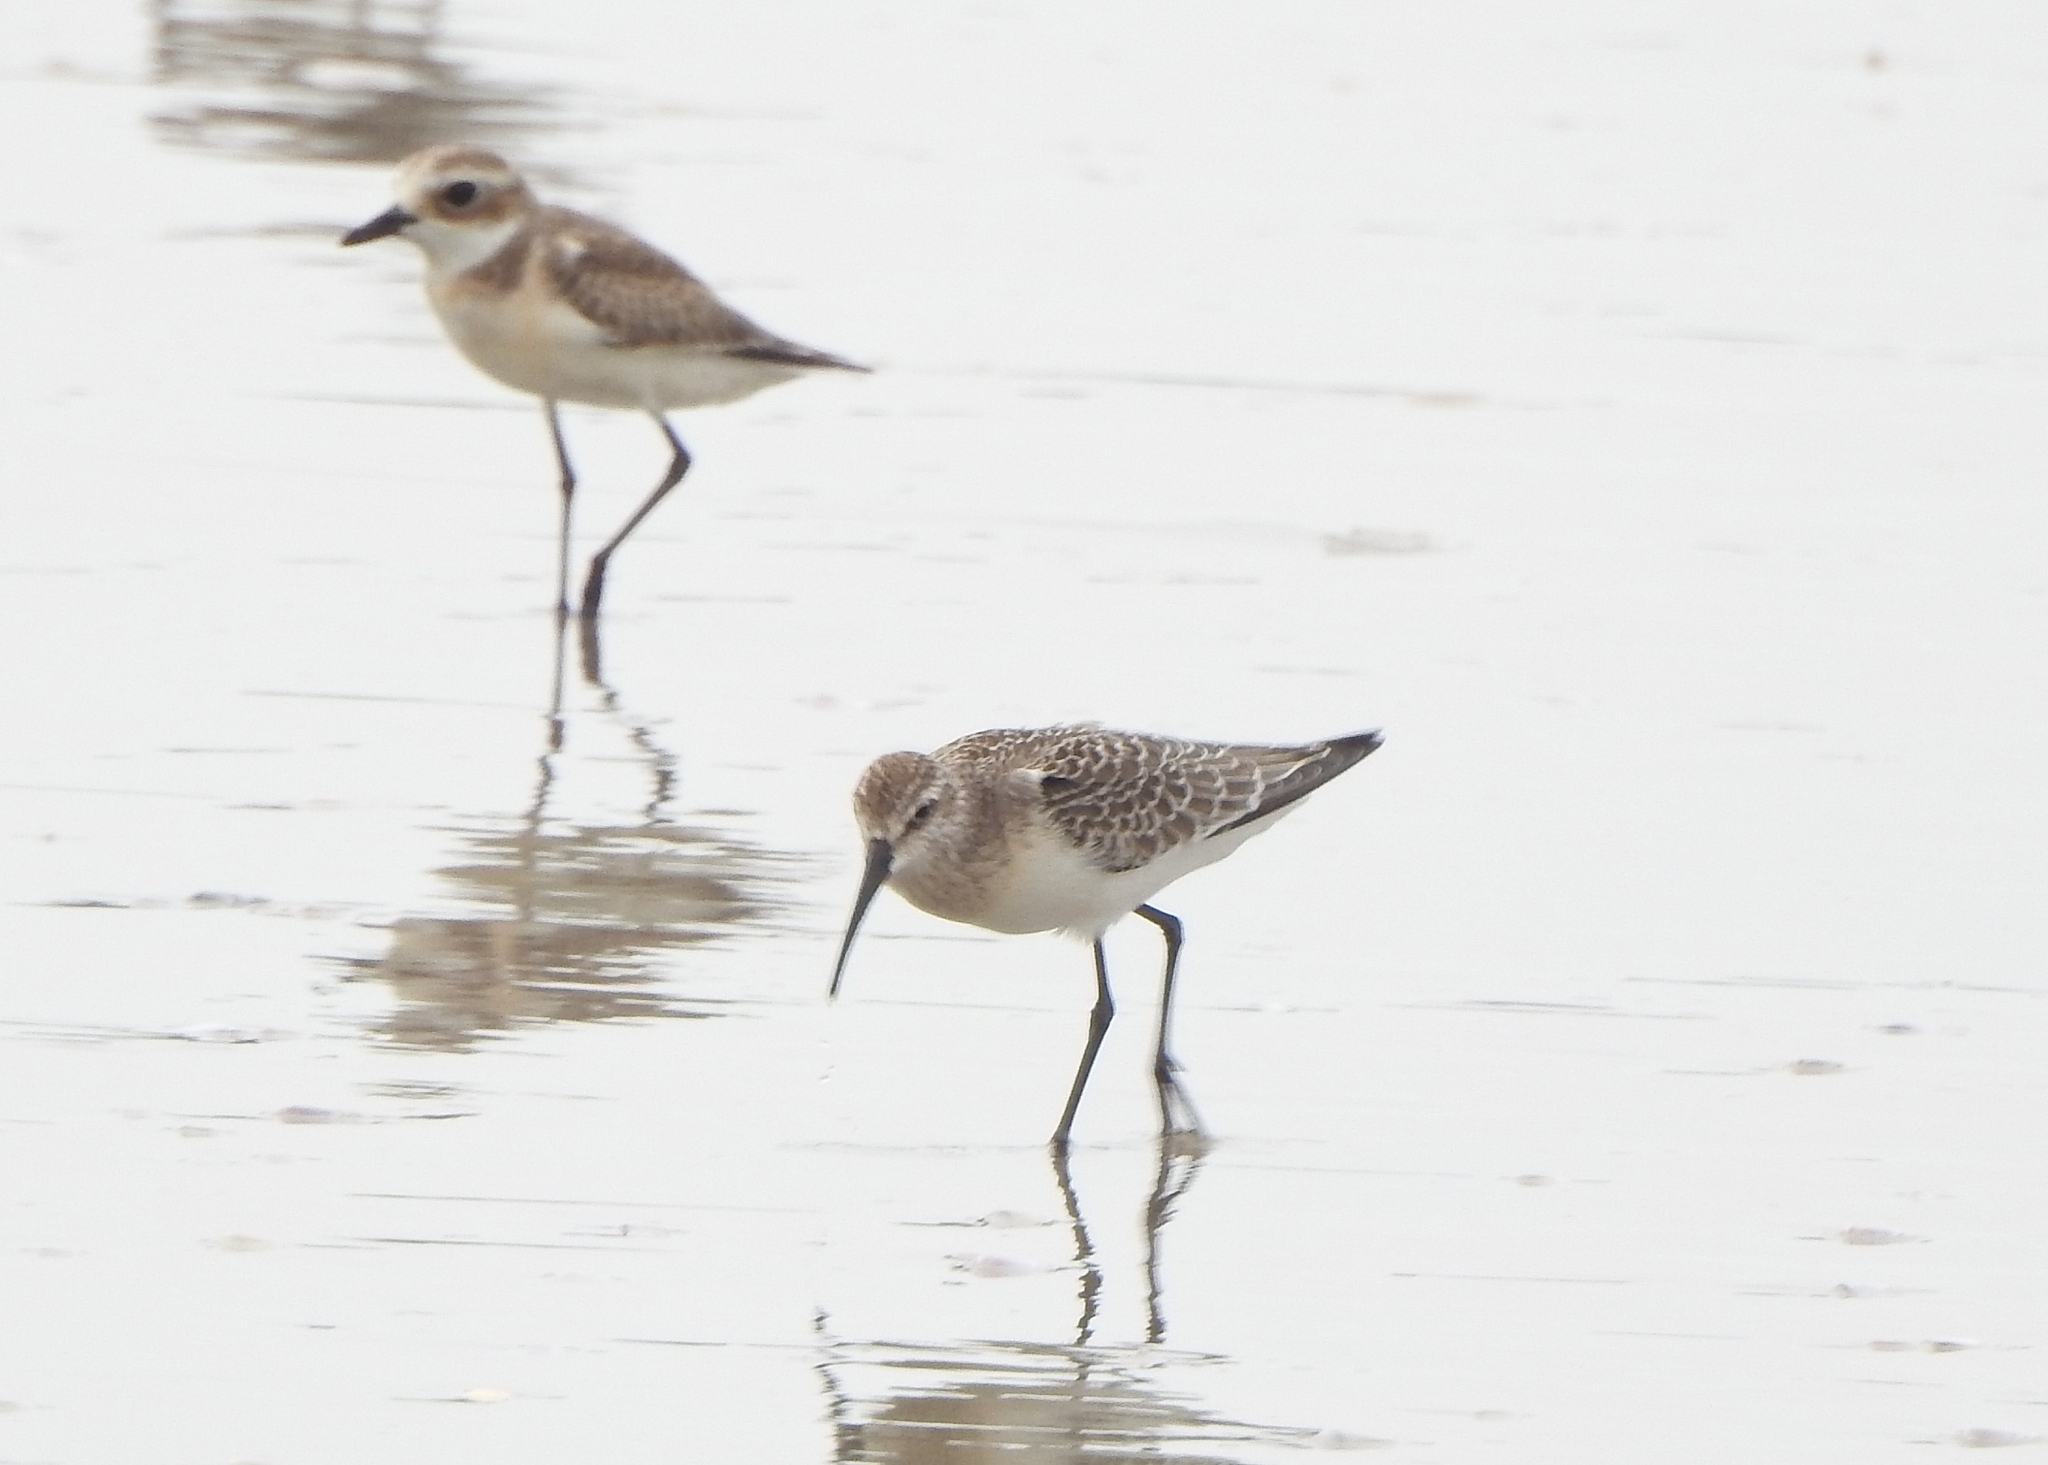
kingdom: Animalia
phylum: Chordata
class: Aves
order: Charadriiformes
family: Scolopacidae
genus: Calidris
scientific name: Calidris ferruginea
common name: Curlew sandpiper
